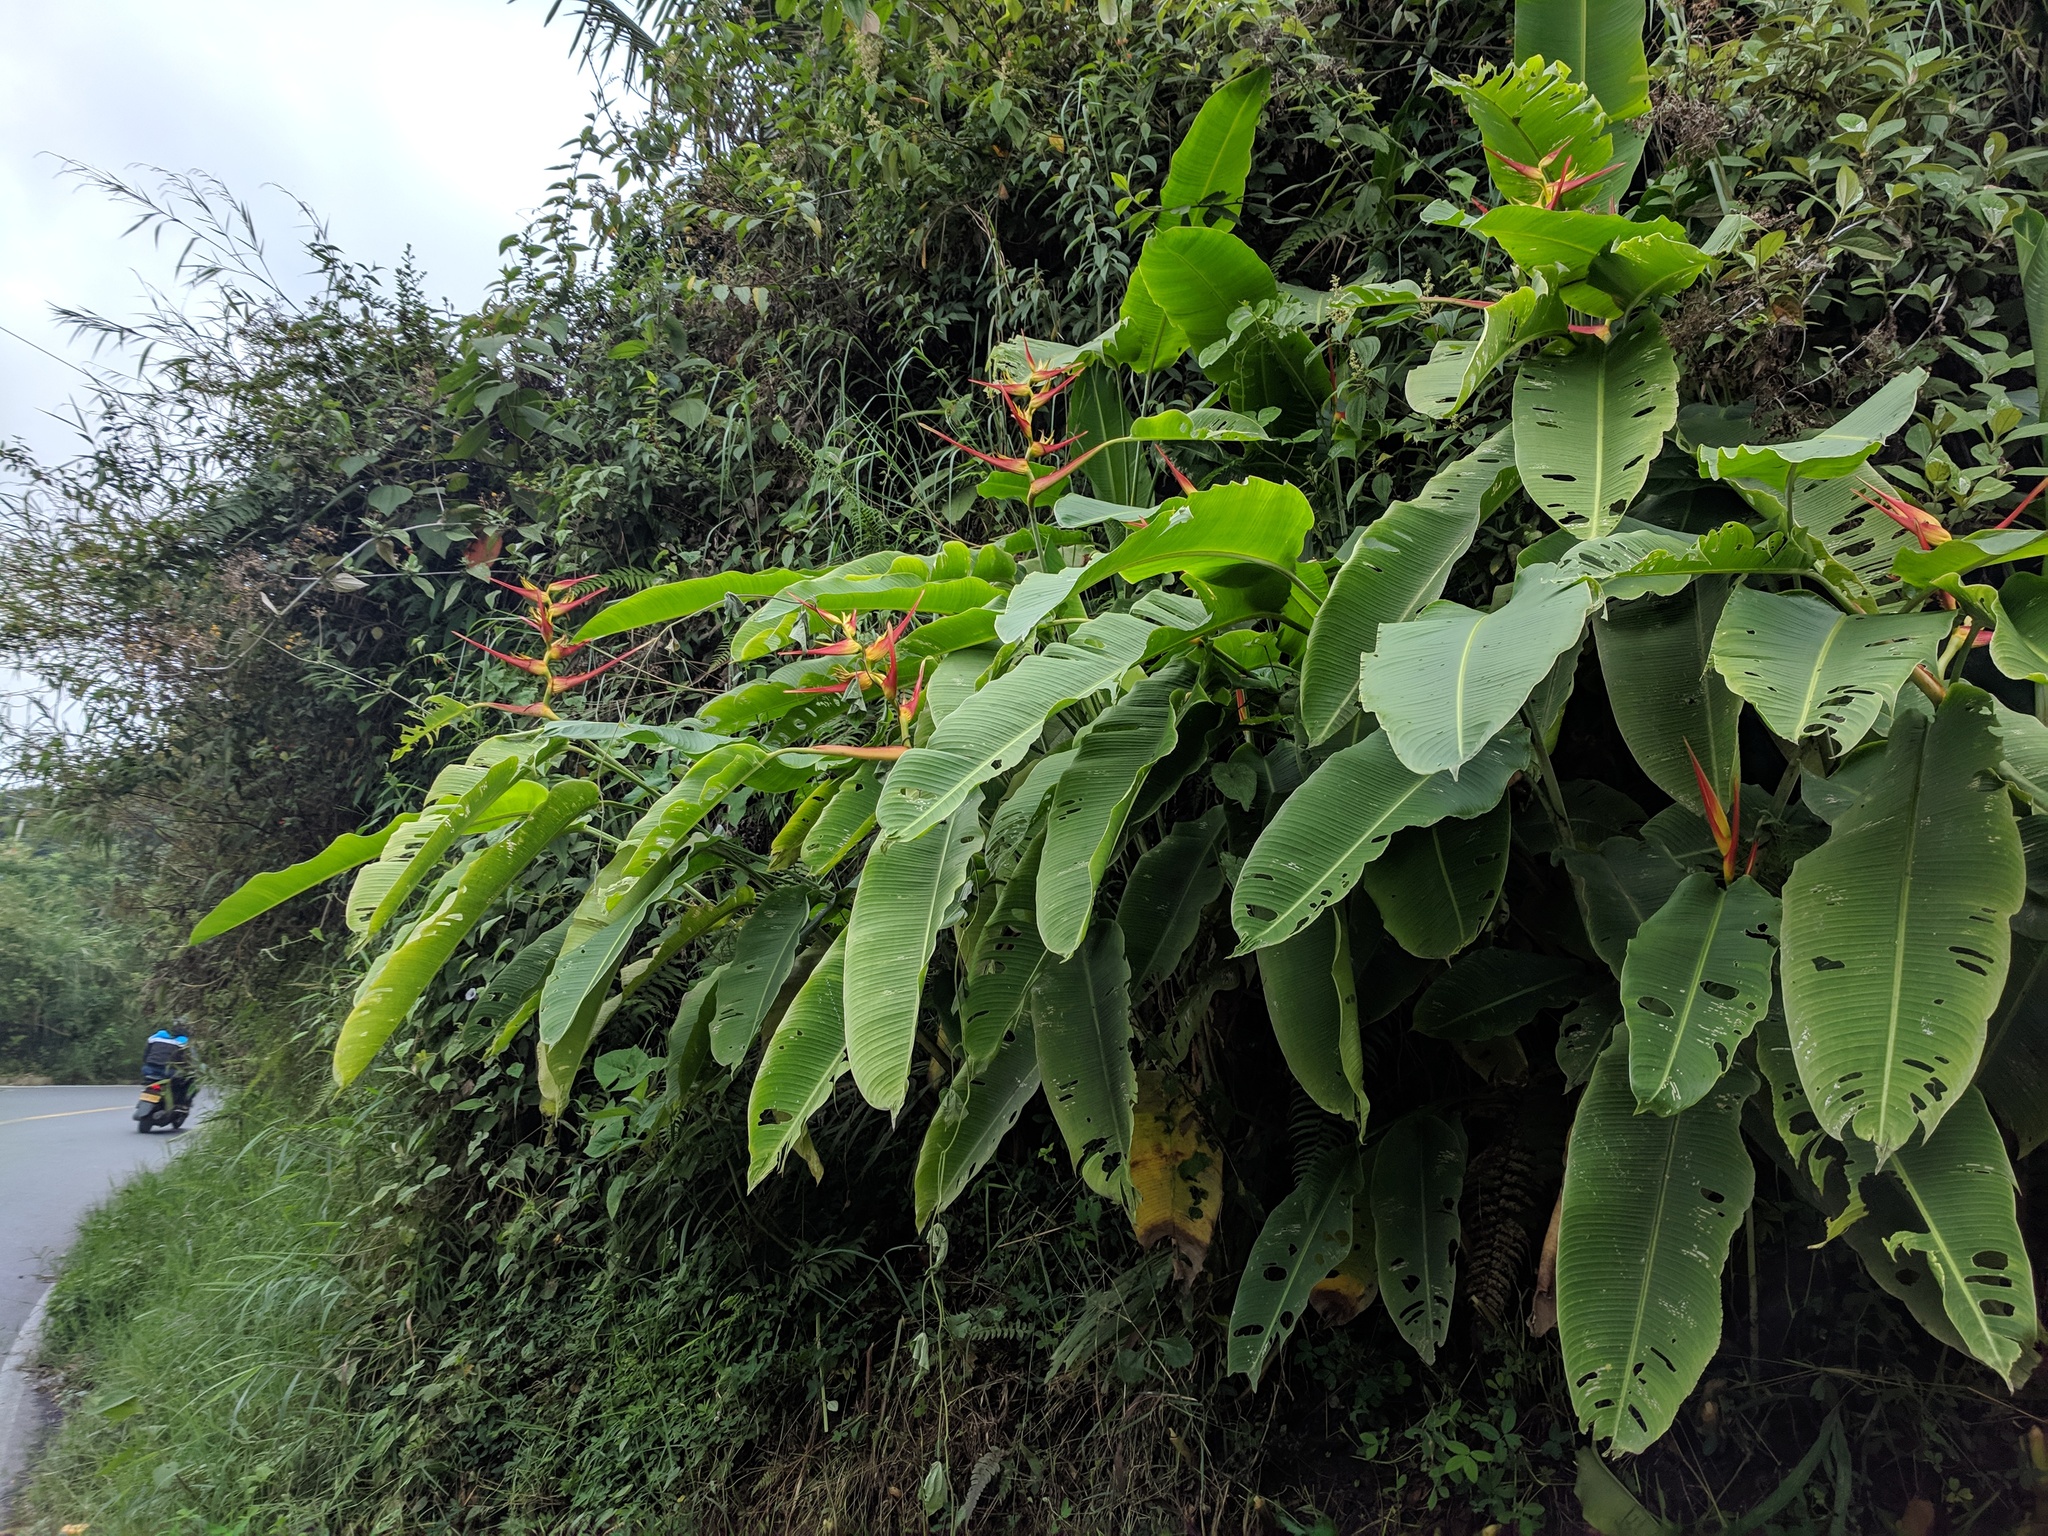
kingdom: Plantae
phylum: Tracheophyta
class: Liliopsida
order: Zingiberales
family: Heliconiaceae
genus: Heliconia
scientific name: Heliconia latispatha
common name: Expanded lobsterclaw
